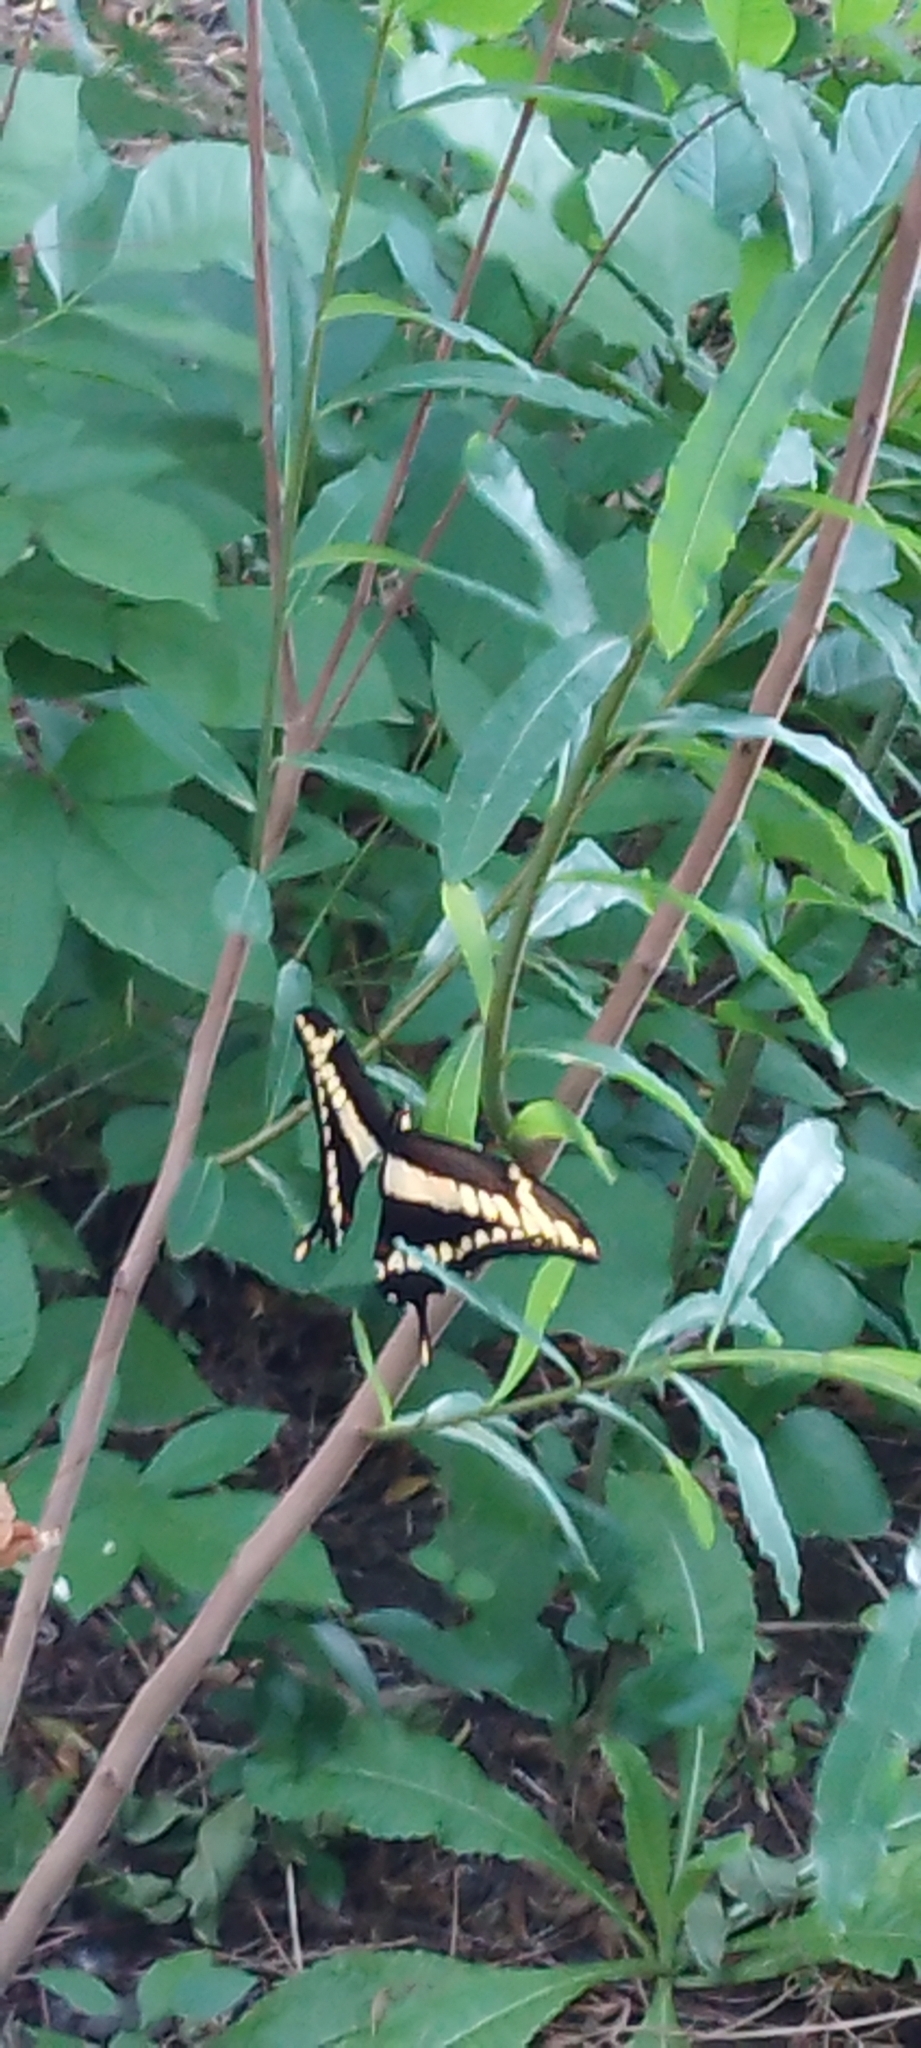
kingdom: Animalia
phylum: Arthropoda
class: Insecta
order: Lepidoptera
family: Papilionidae
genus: Papilio
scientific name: Papilio thoas
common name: King swallowtail
